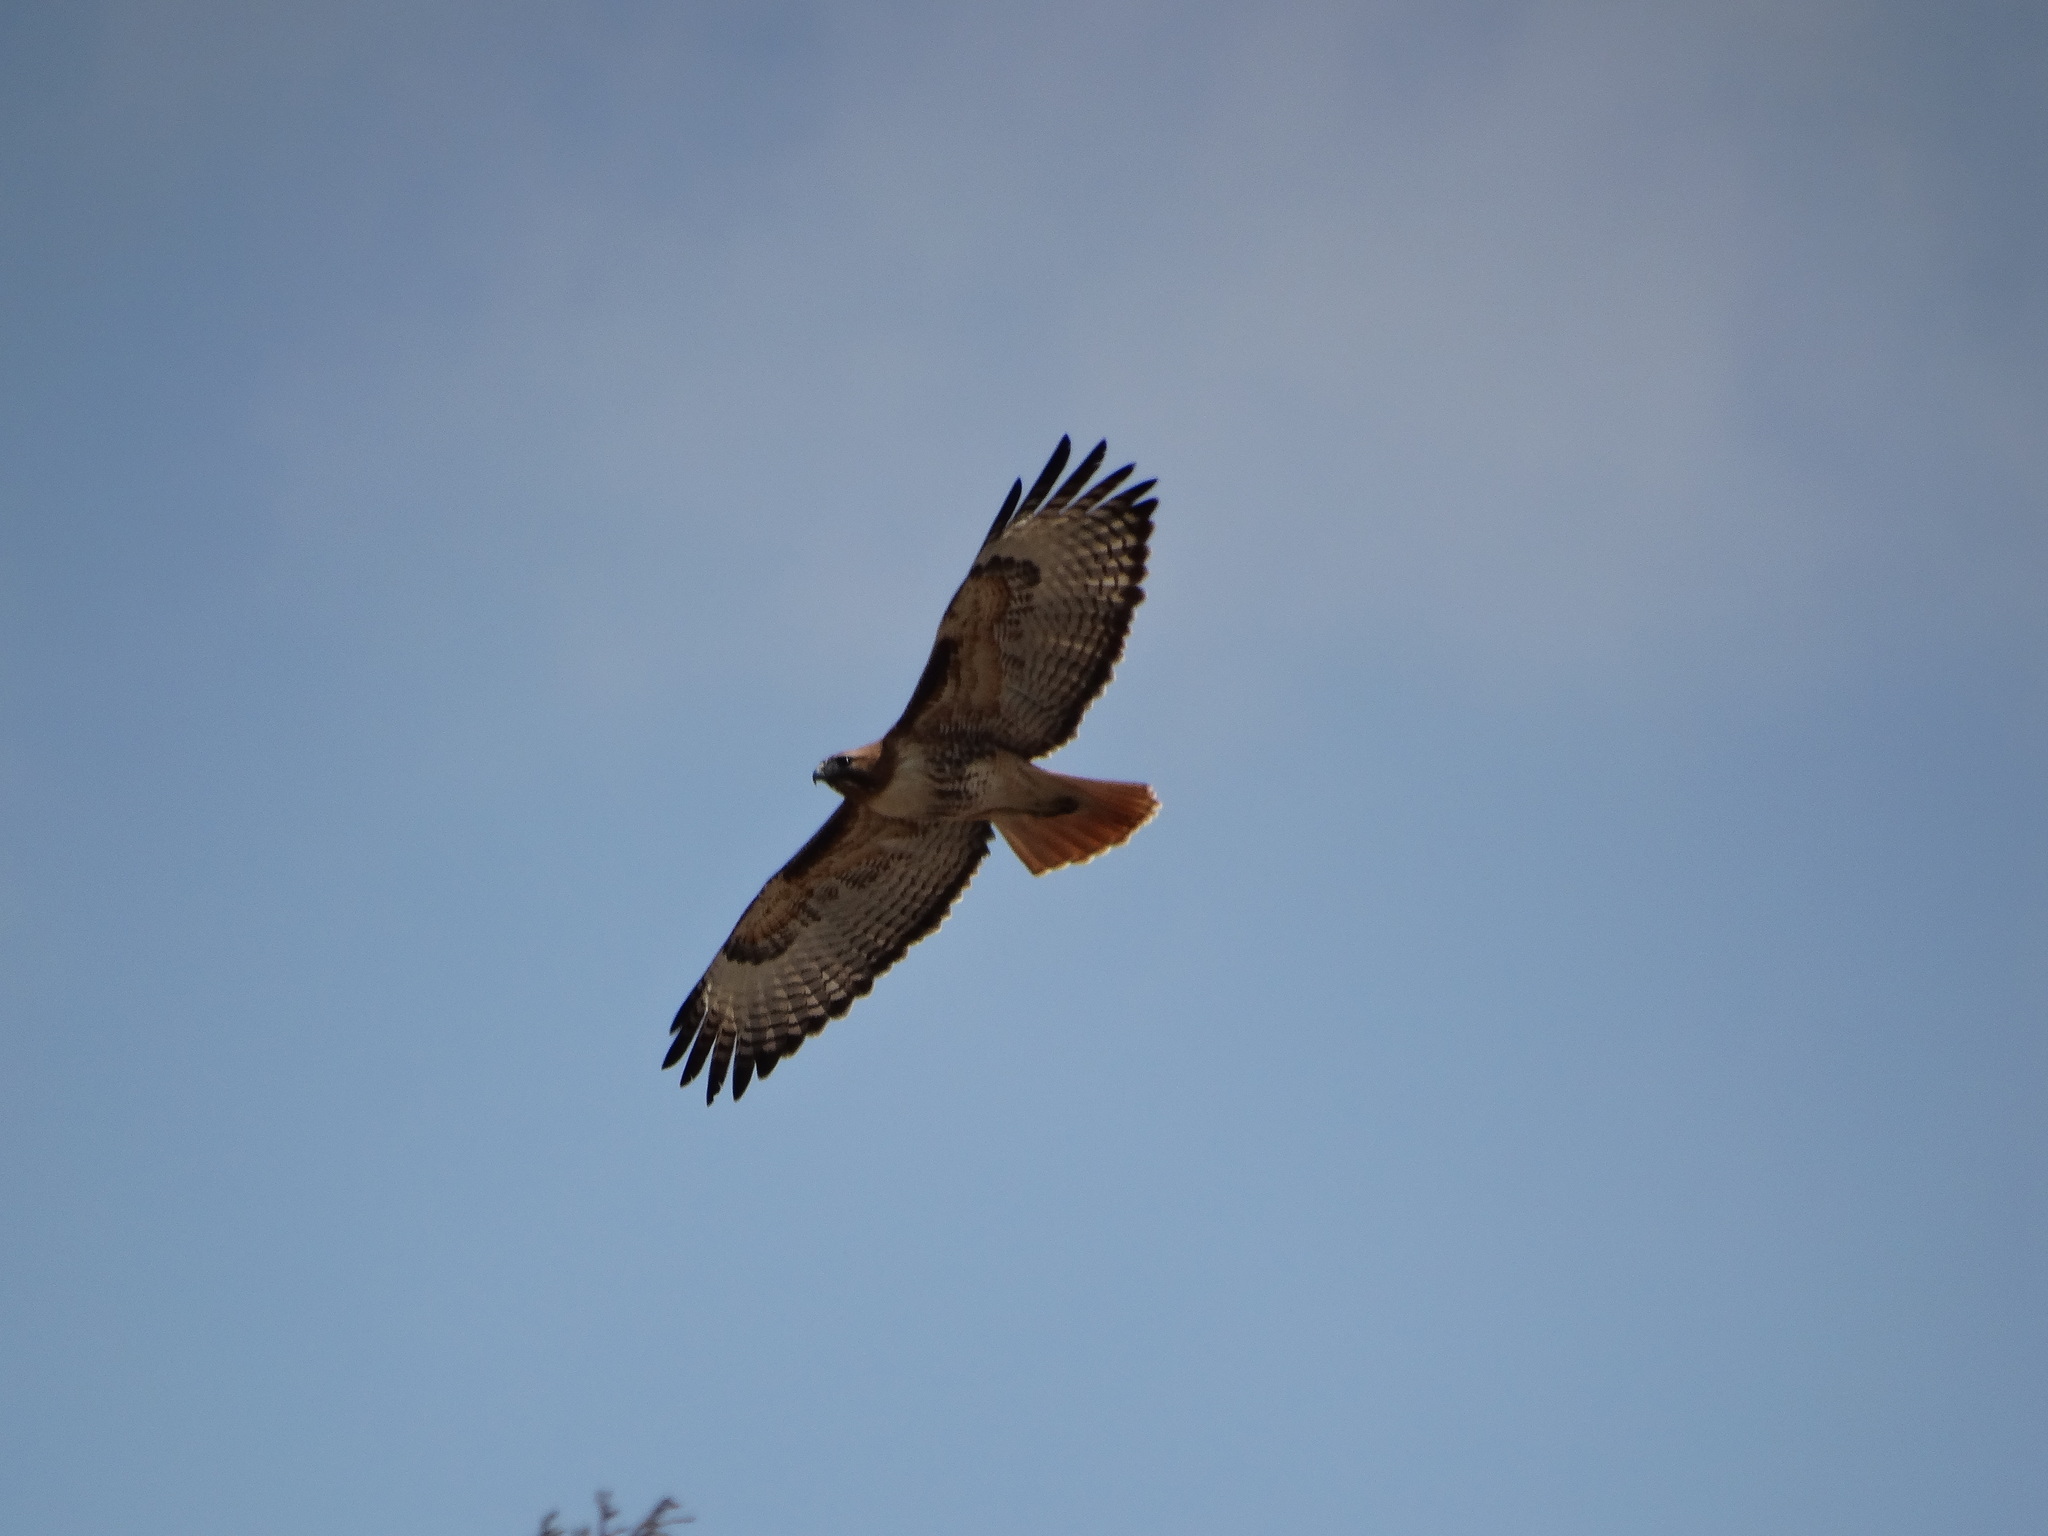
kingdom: Animalia
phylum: Chordata
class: Aves
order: Accipitriformes
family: Accipitridae
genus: Buteo
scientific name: Buteo jamaicensis
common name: Red-tailed hawk
